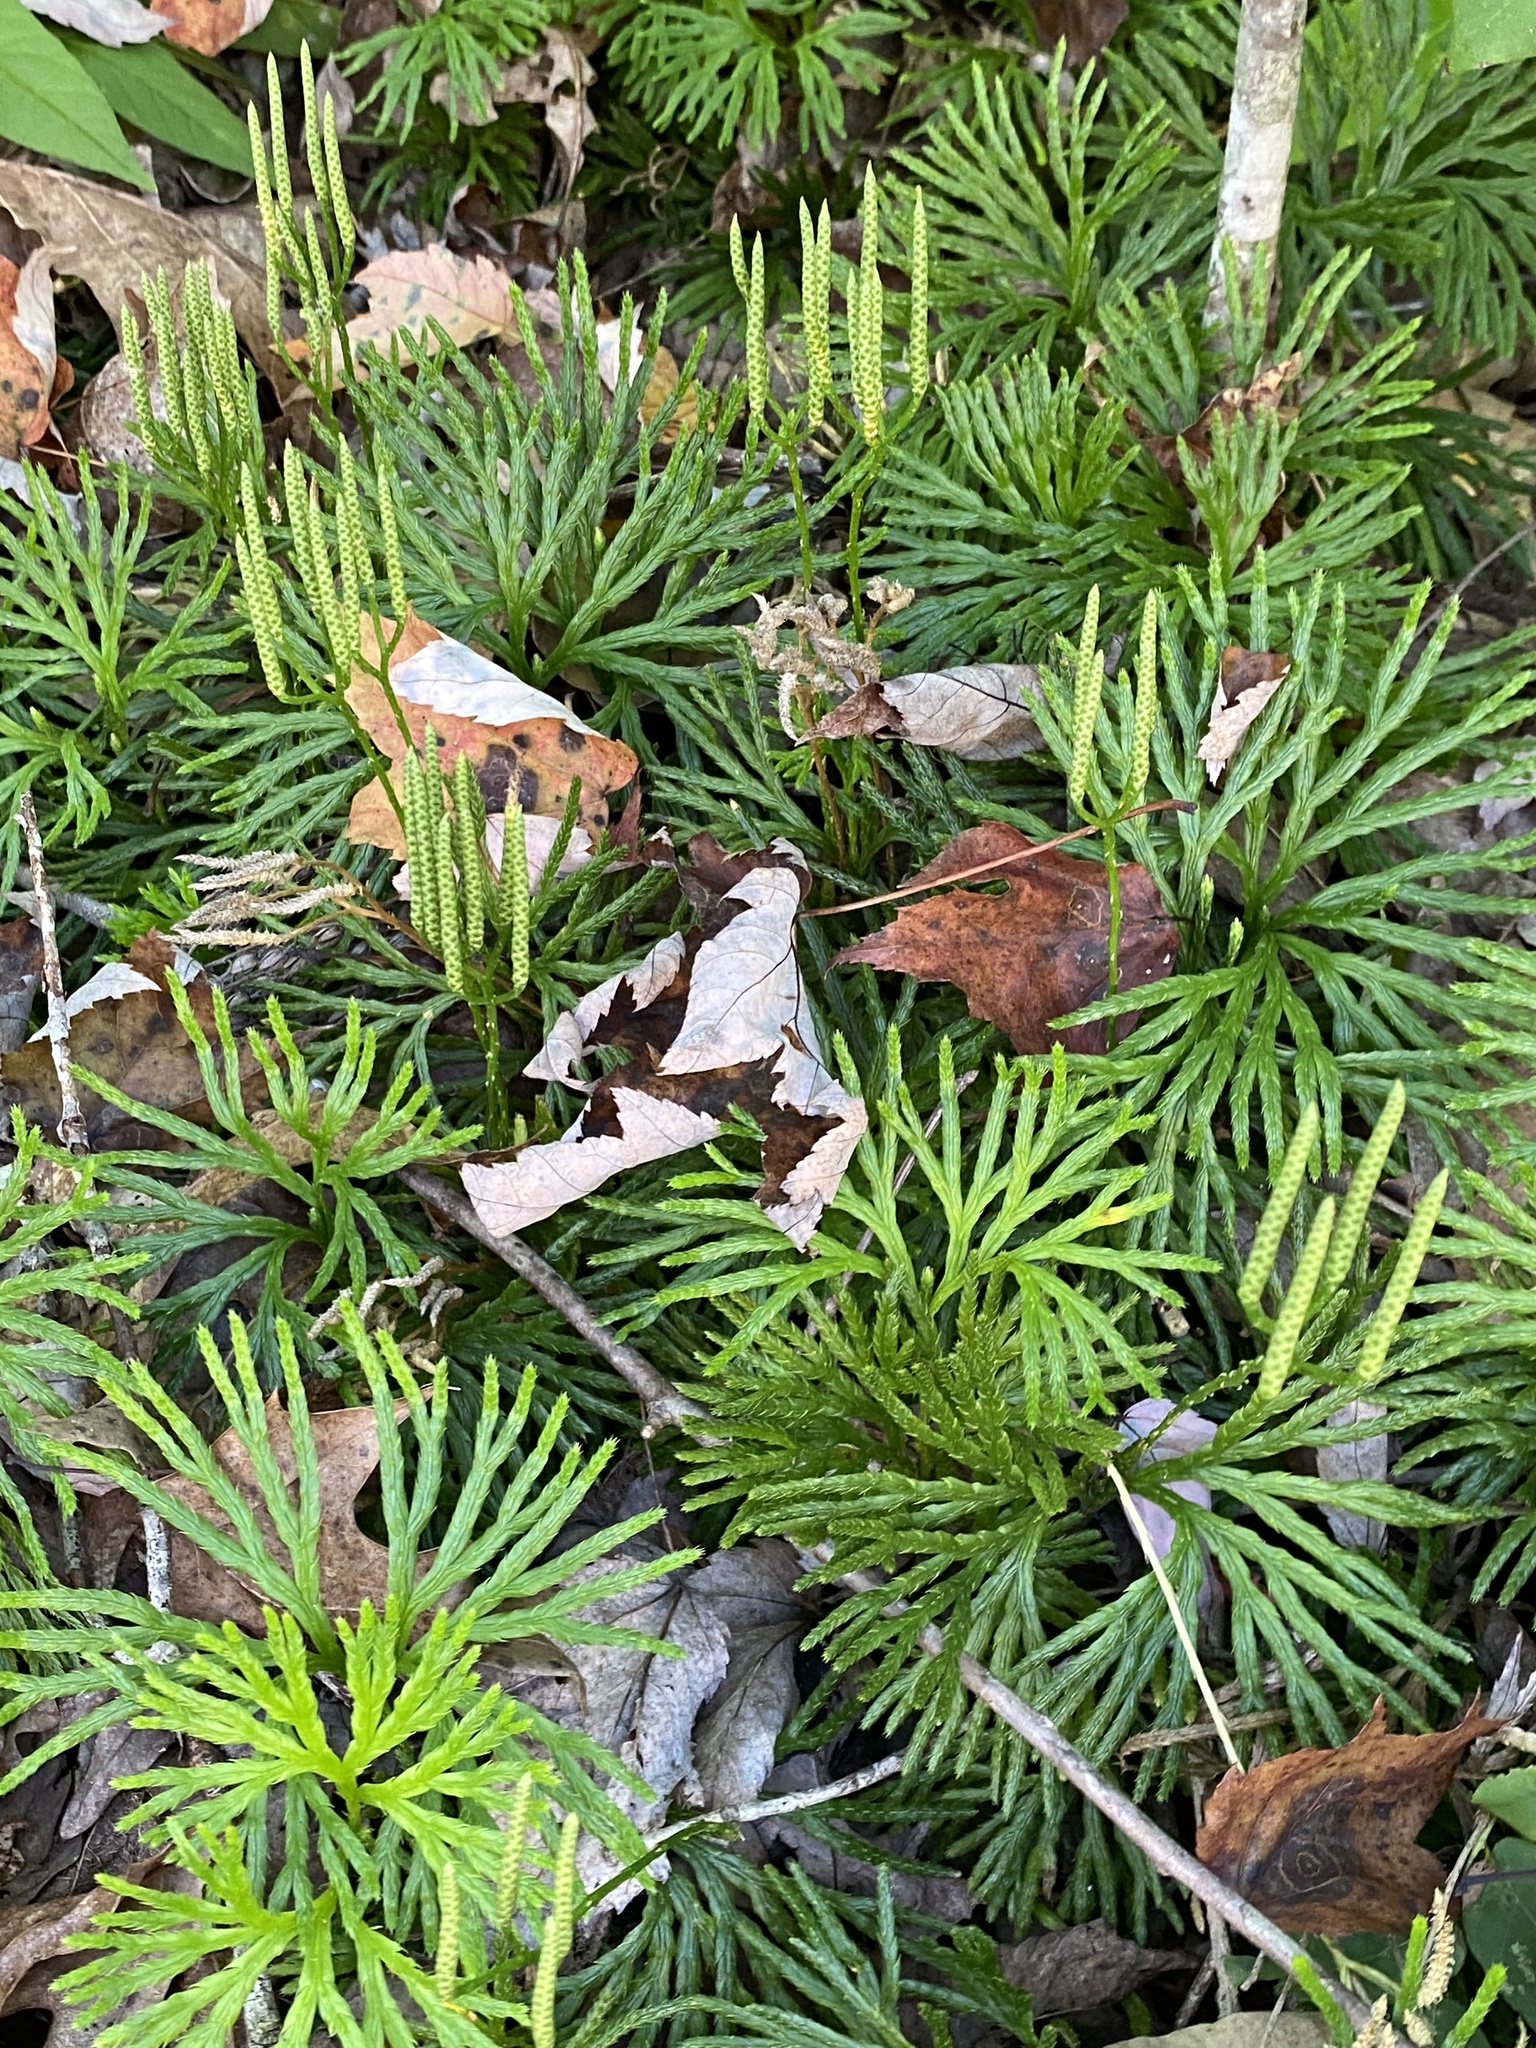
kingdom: Plantae
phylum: Tracheophyta
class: Lycopodiopsida
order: Lycopodiales
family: Lycopodiaceae
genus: Diphasiastrum
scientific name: Diphasiastrum digitatum
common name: Southern running-pine
